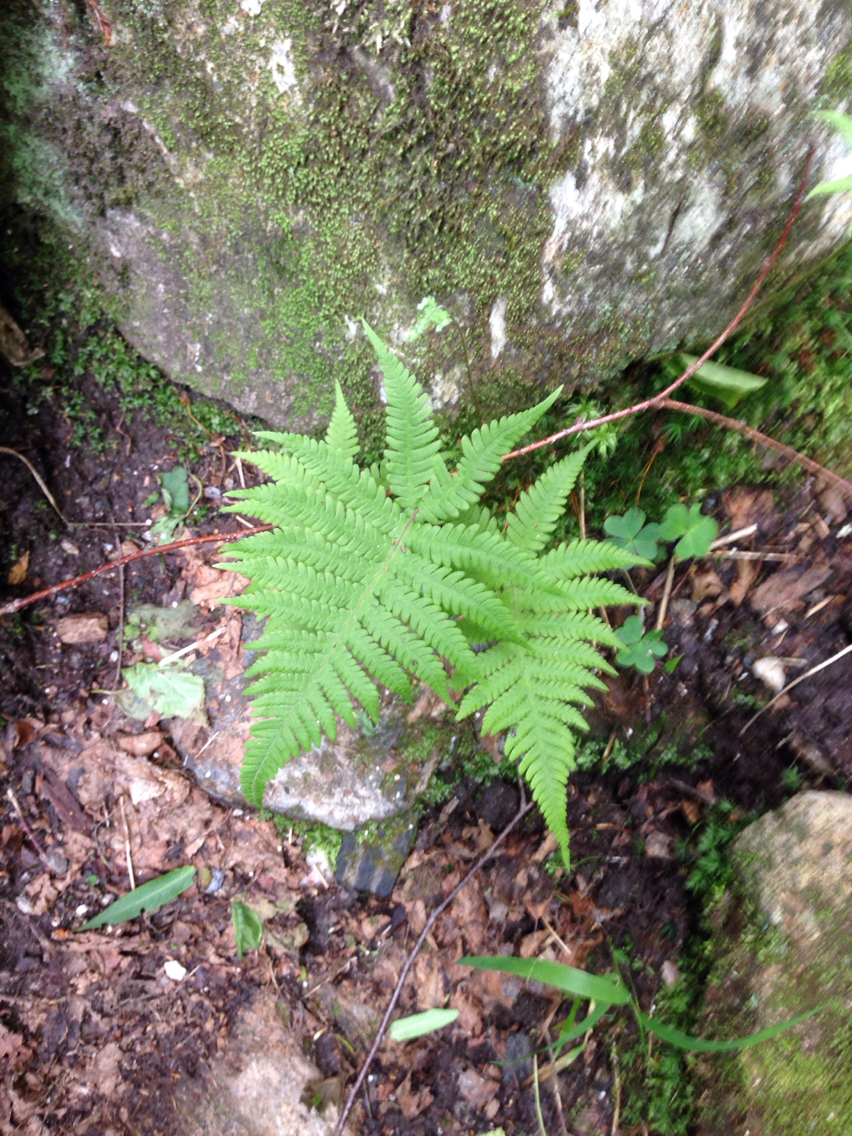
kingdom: Plantae
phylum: Tracheophyta
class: Polypodiopsida
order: Polypodiales
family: Thelypteridaceae
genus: Phegopteris
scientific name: Phegopteris connectilis
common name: Beech fern
